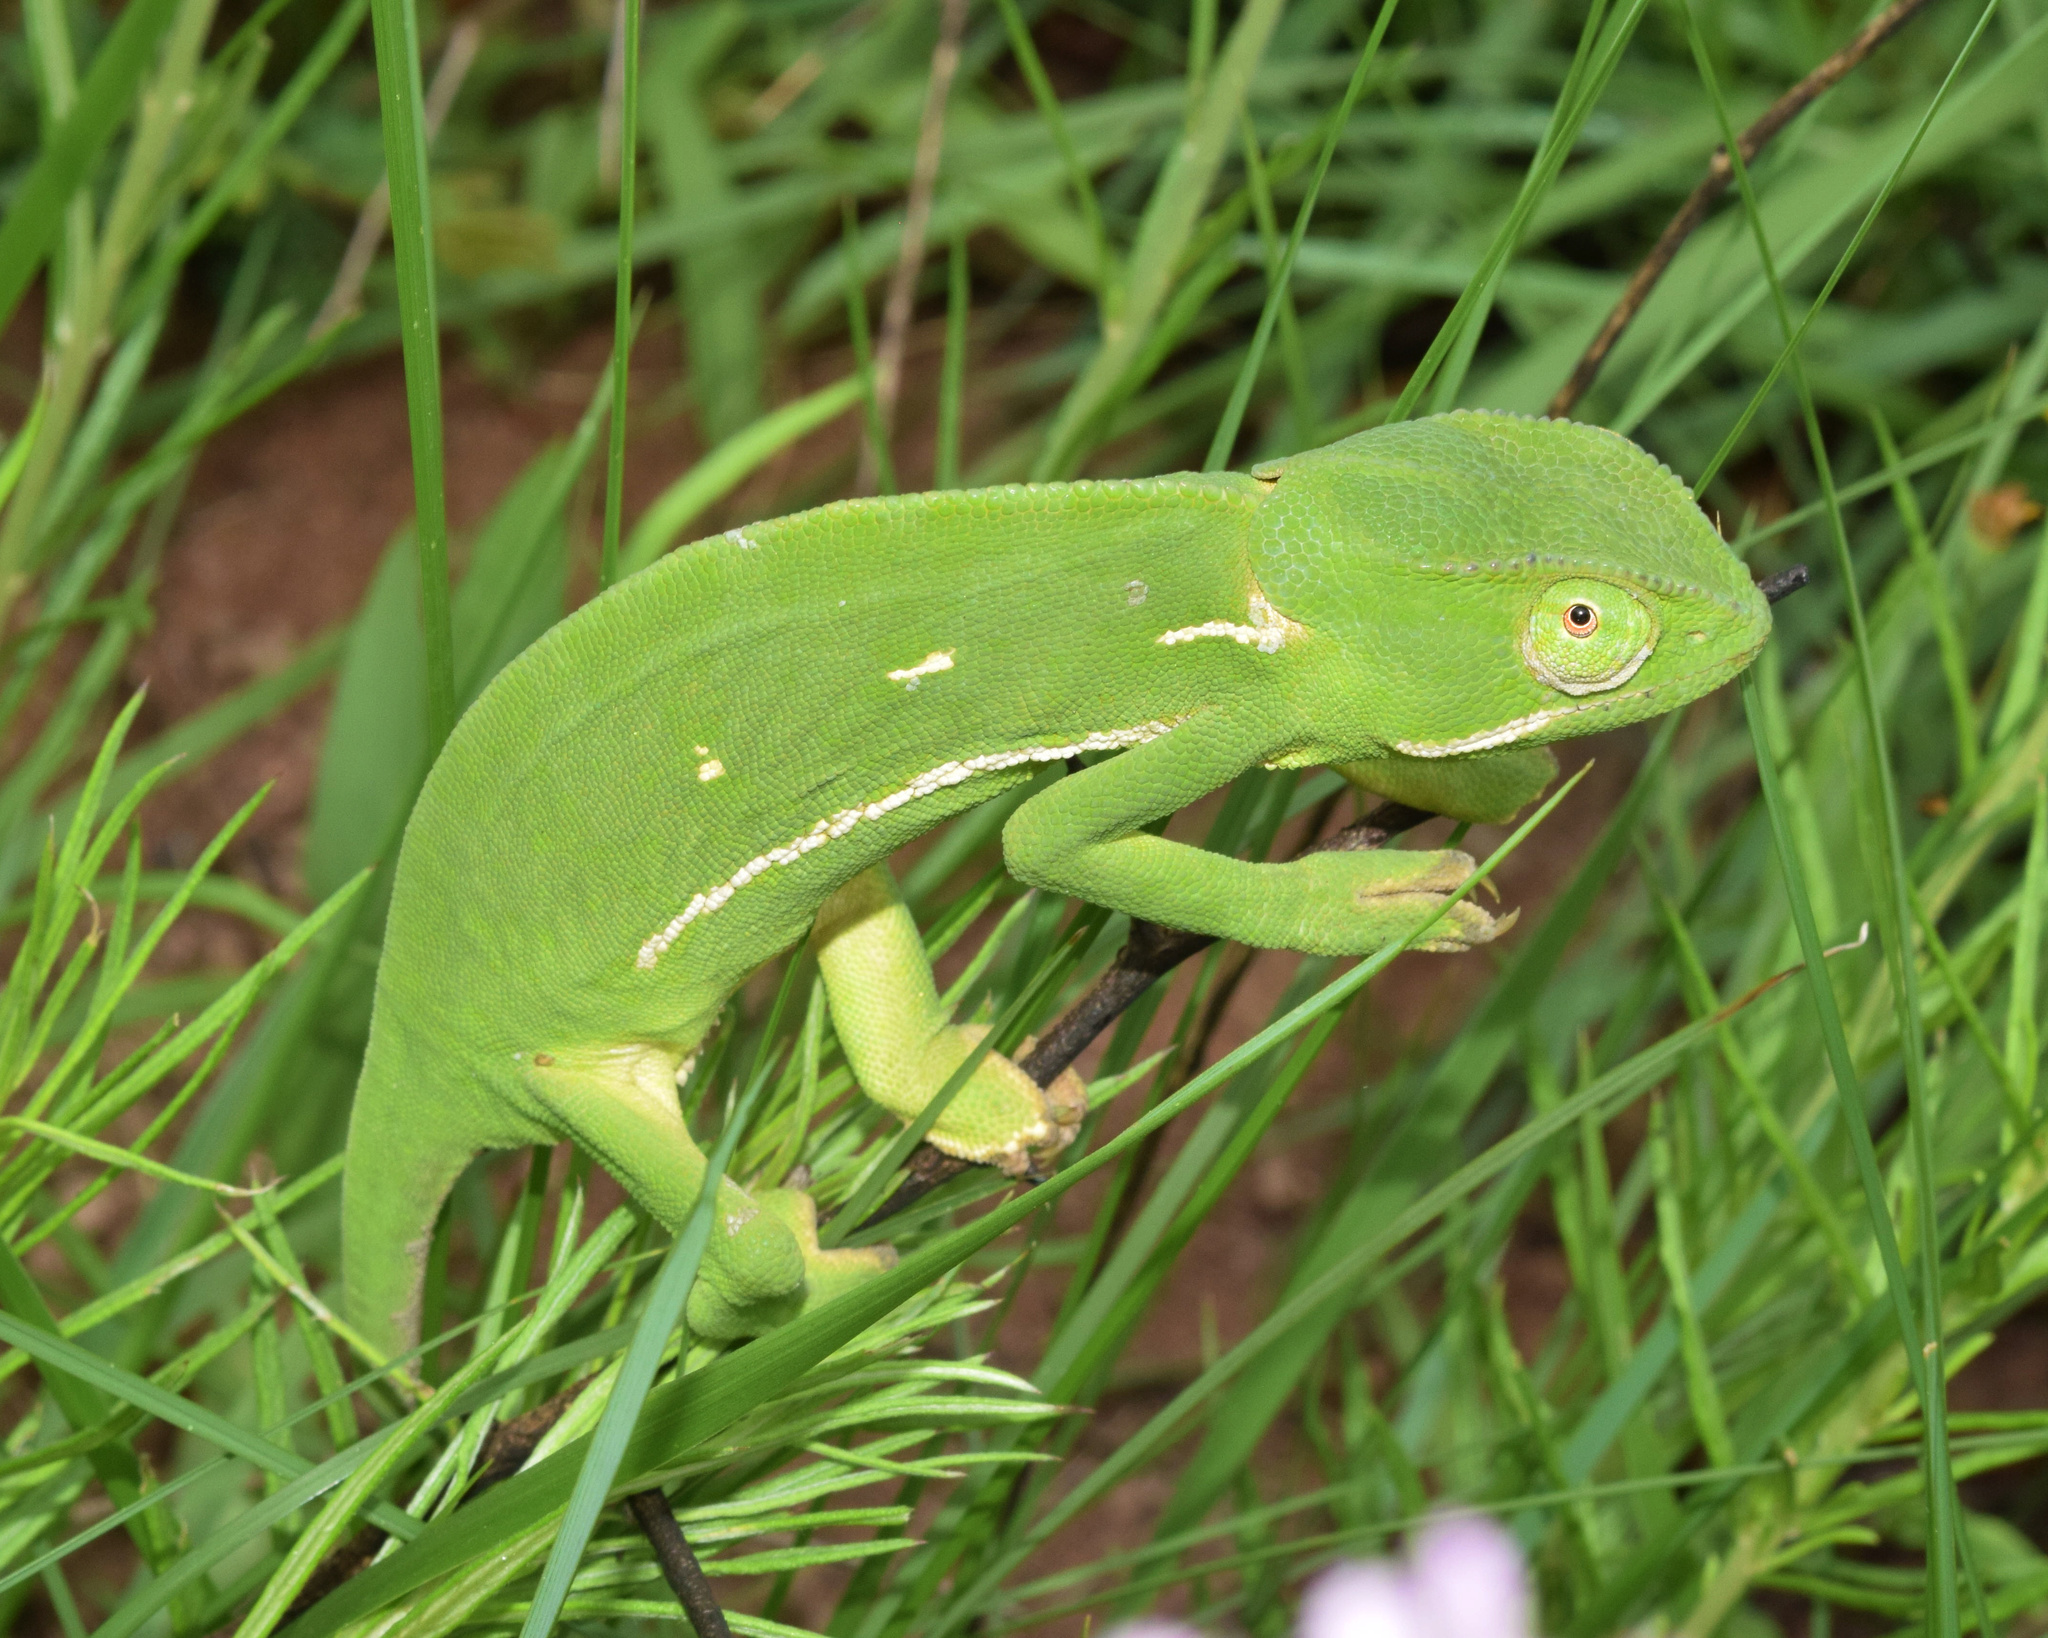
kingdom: Animalia
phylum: Chordata
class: Squamata
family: Chamaeleonidae
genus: Chamaeleo
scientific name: Chamaeleo dilepis
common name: Flapneck chameleon
